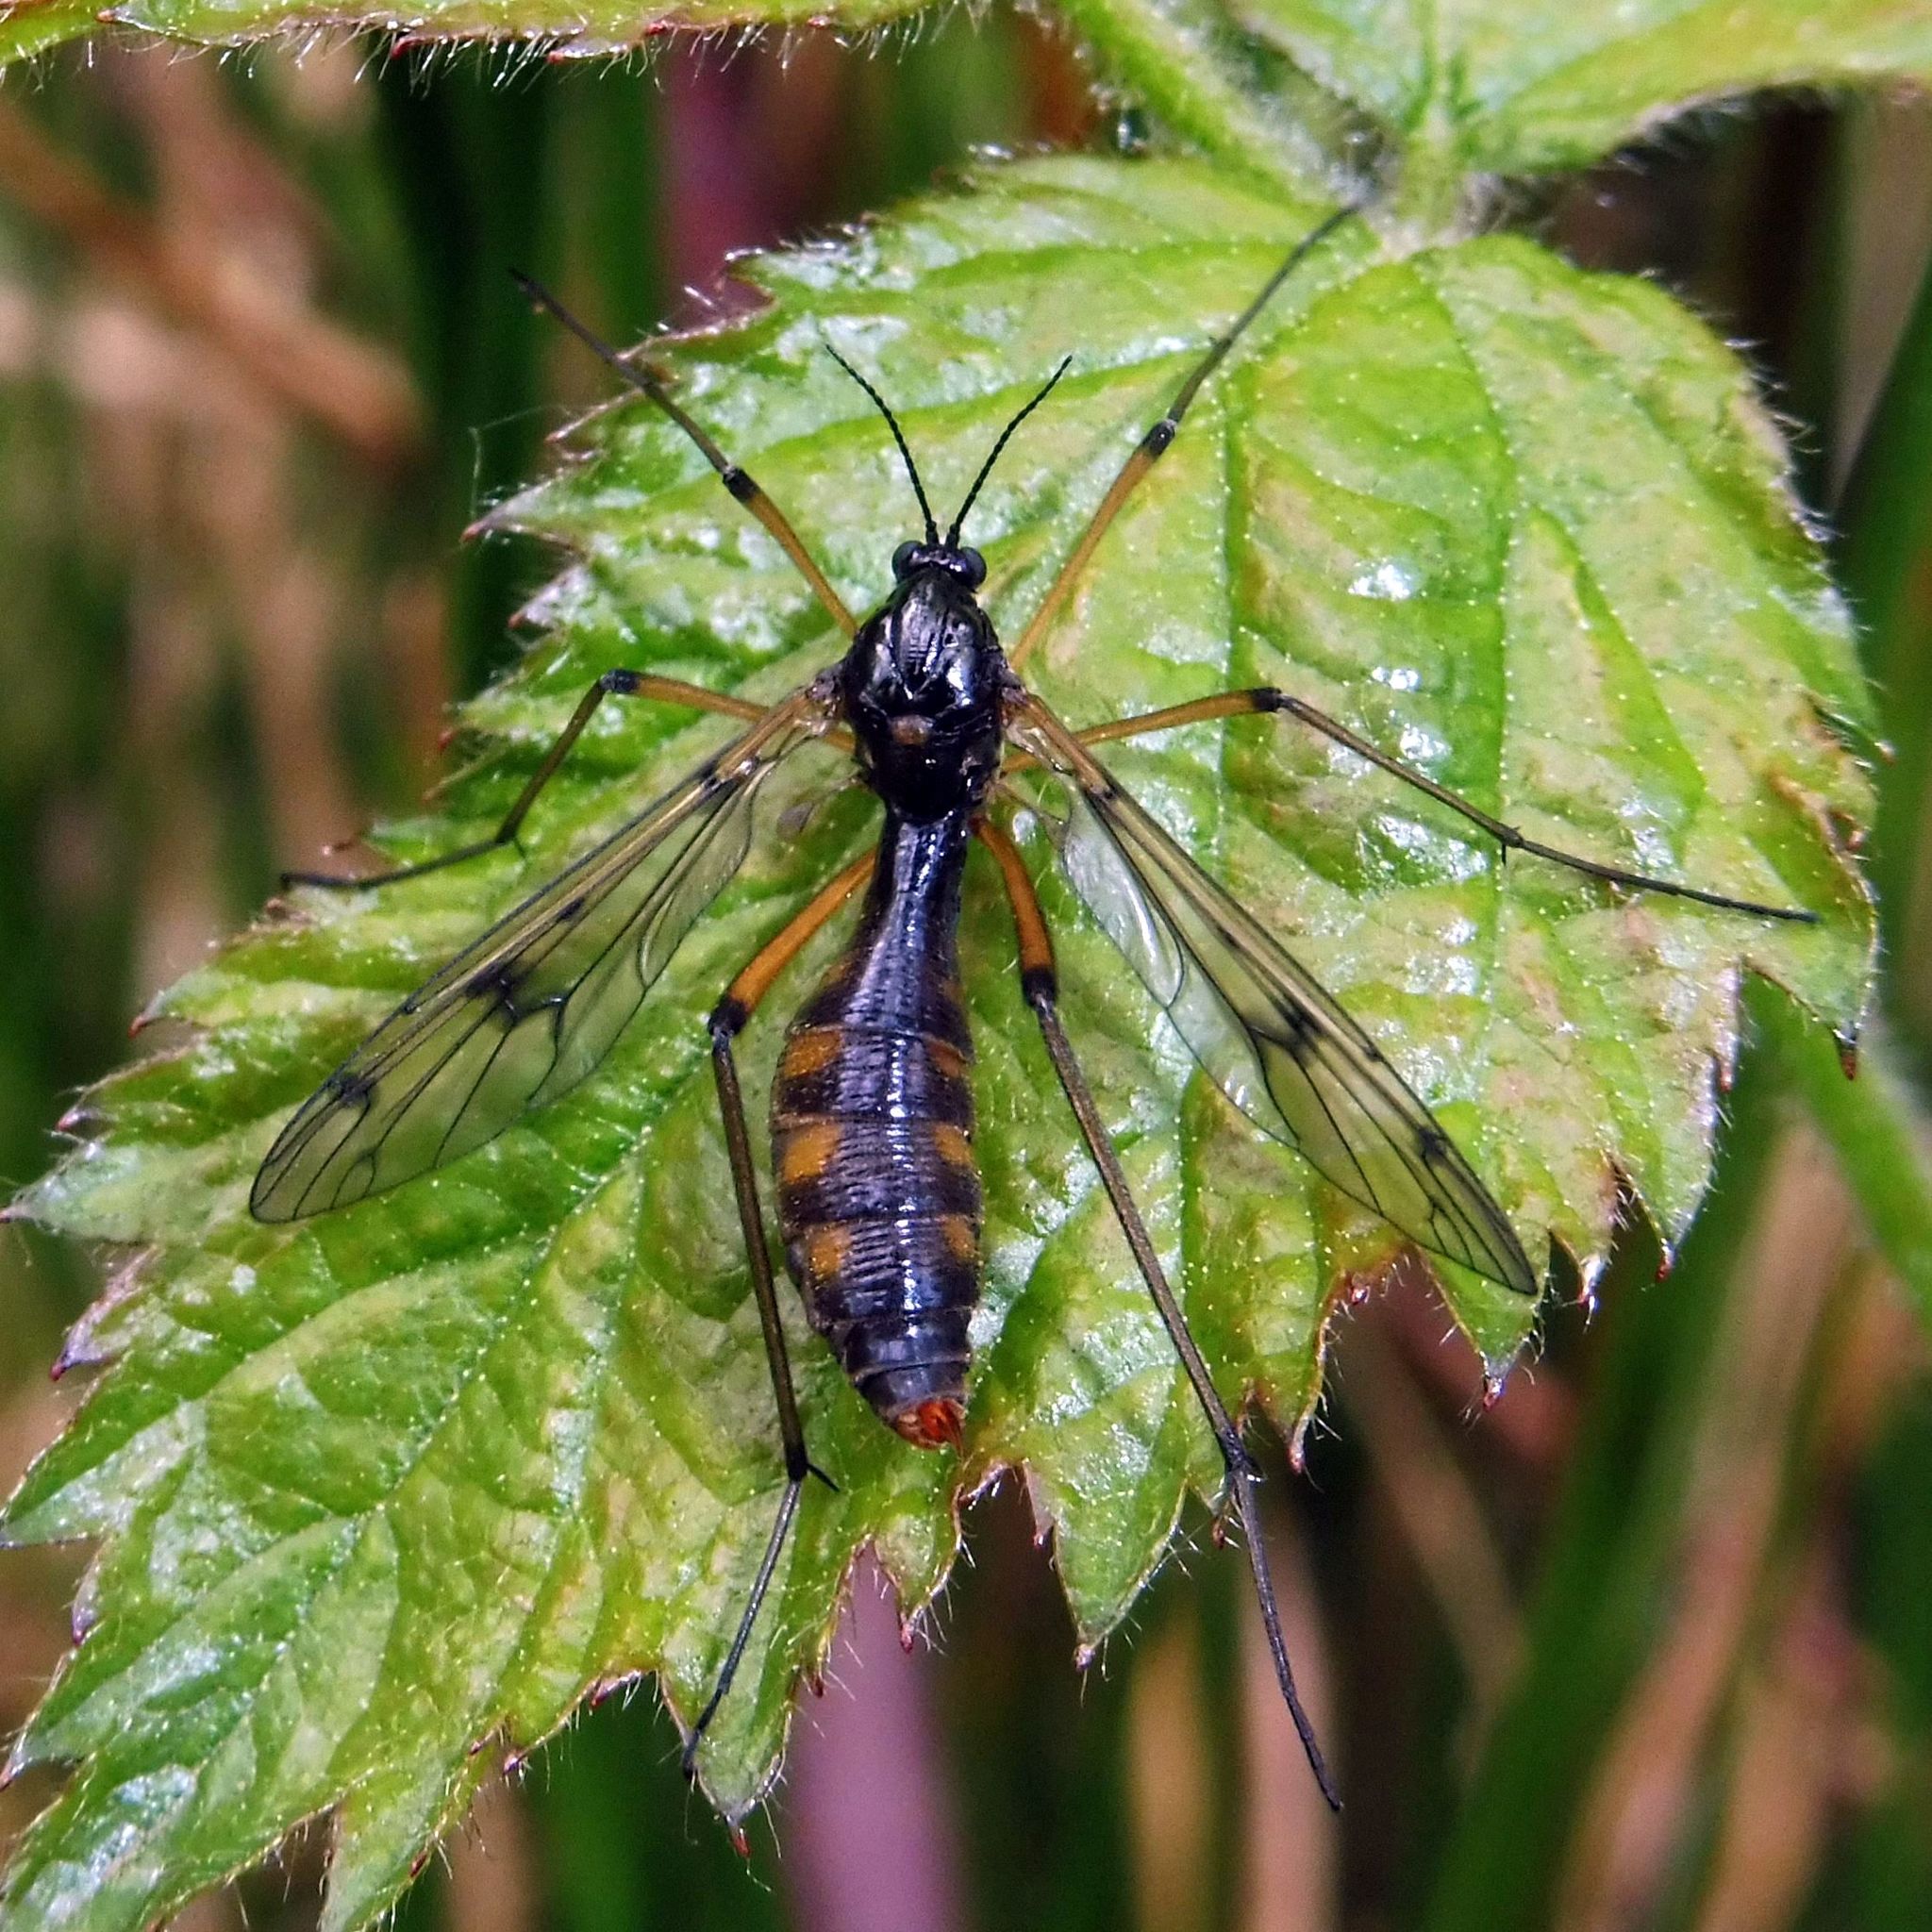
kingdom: Animalia
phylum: Arthropoda
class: Insecta
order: Diptera
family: Ptychopteridae
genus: Ptychoptera
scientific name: Ptychoptera contaminata
